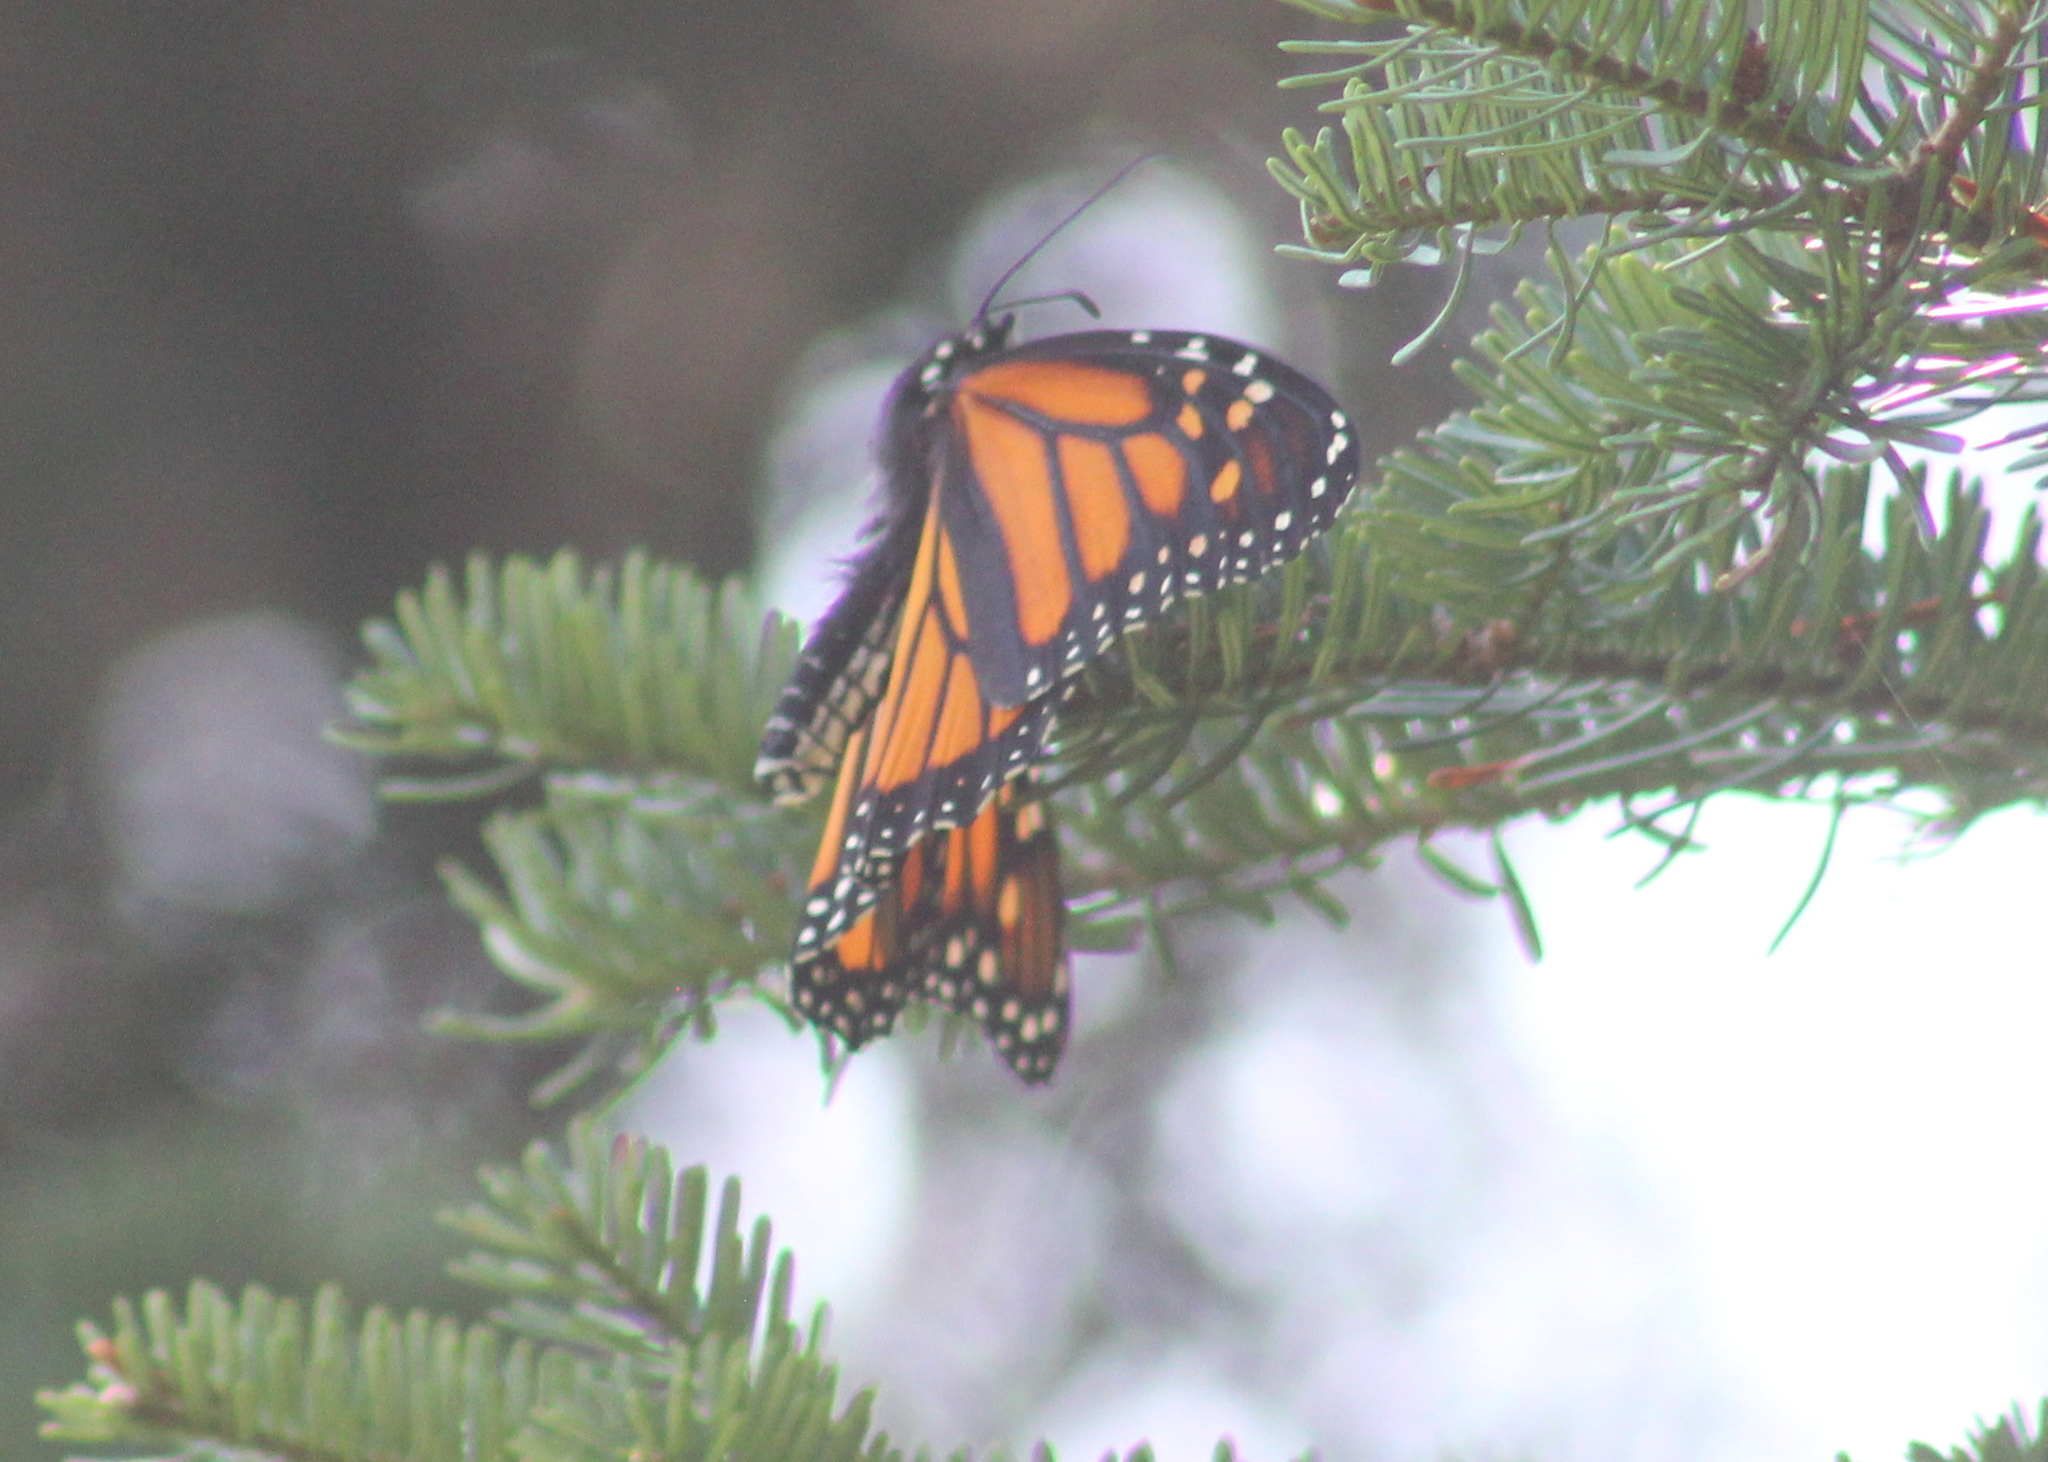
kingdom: Animalia
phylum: Arthropoda
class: Insecta
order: Lepidoptera
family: Nymphalidae
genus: Danaus
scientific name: Danaus plexippus
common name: Monarch
